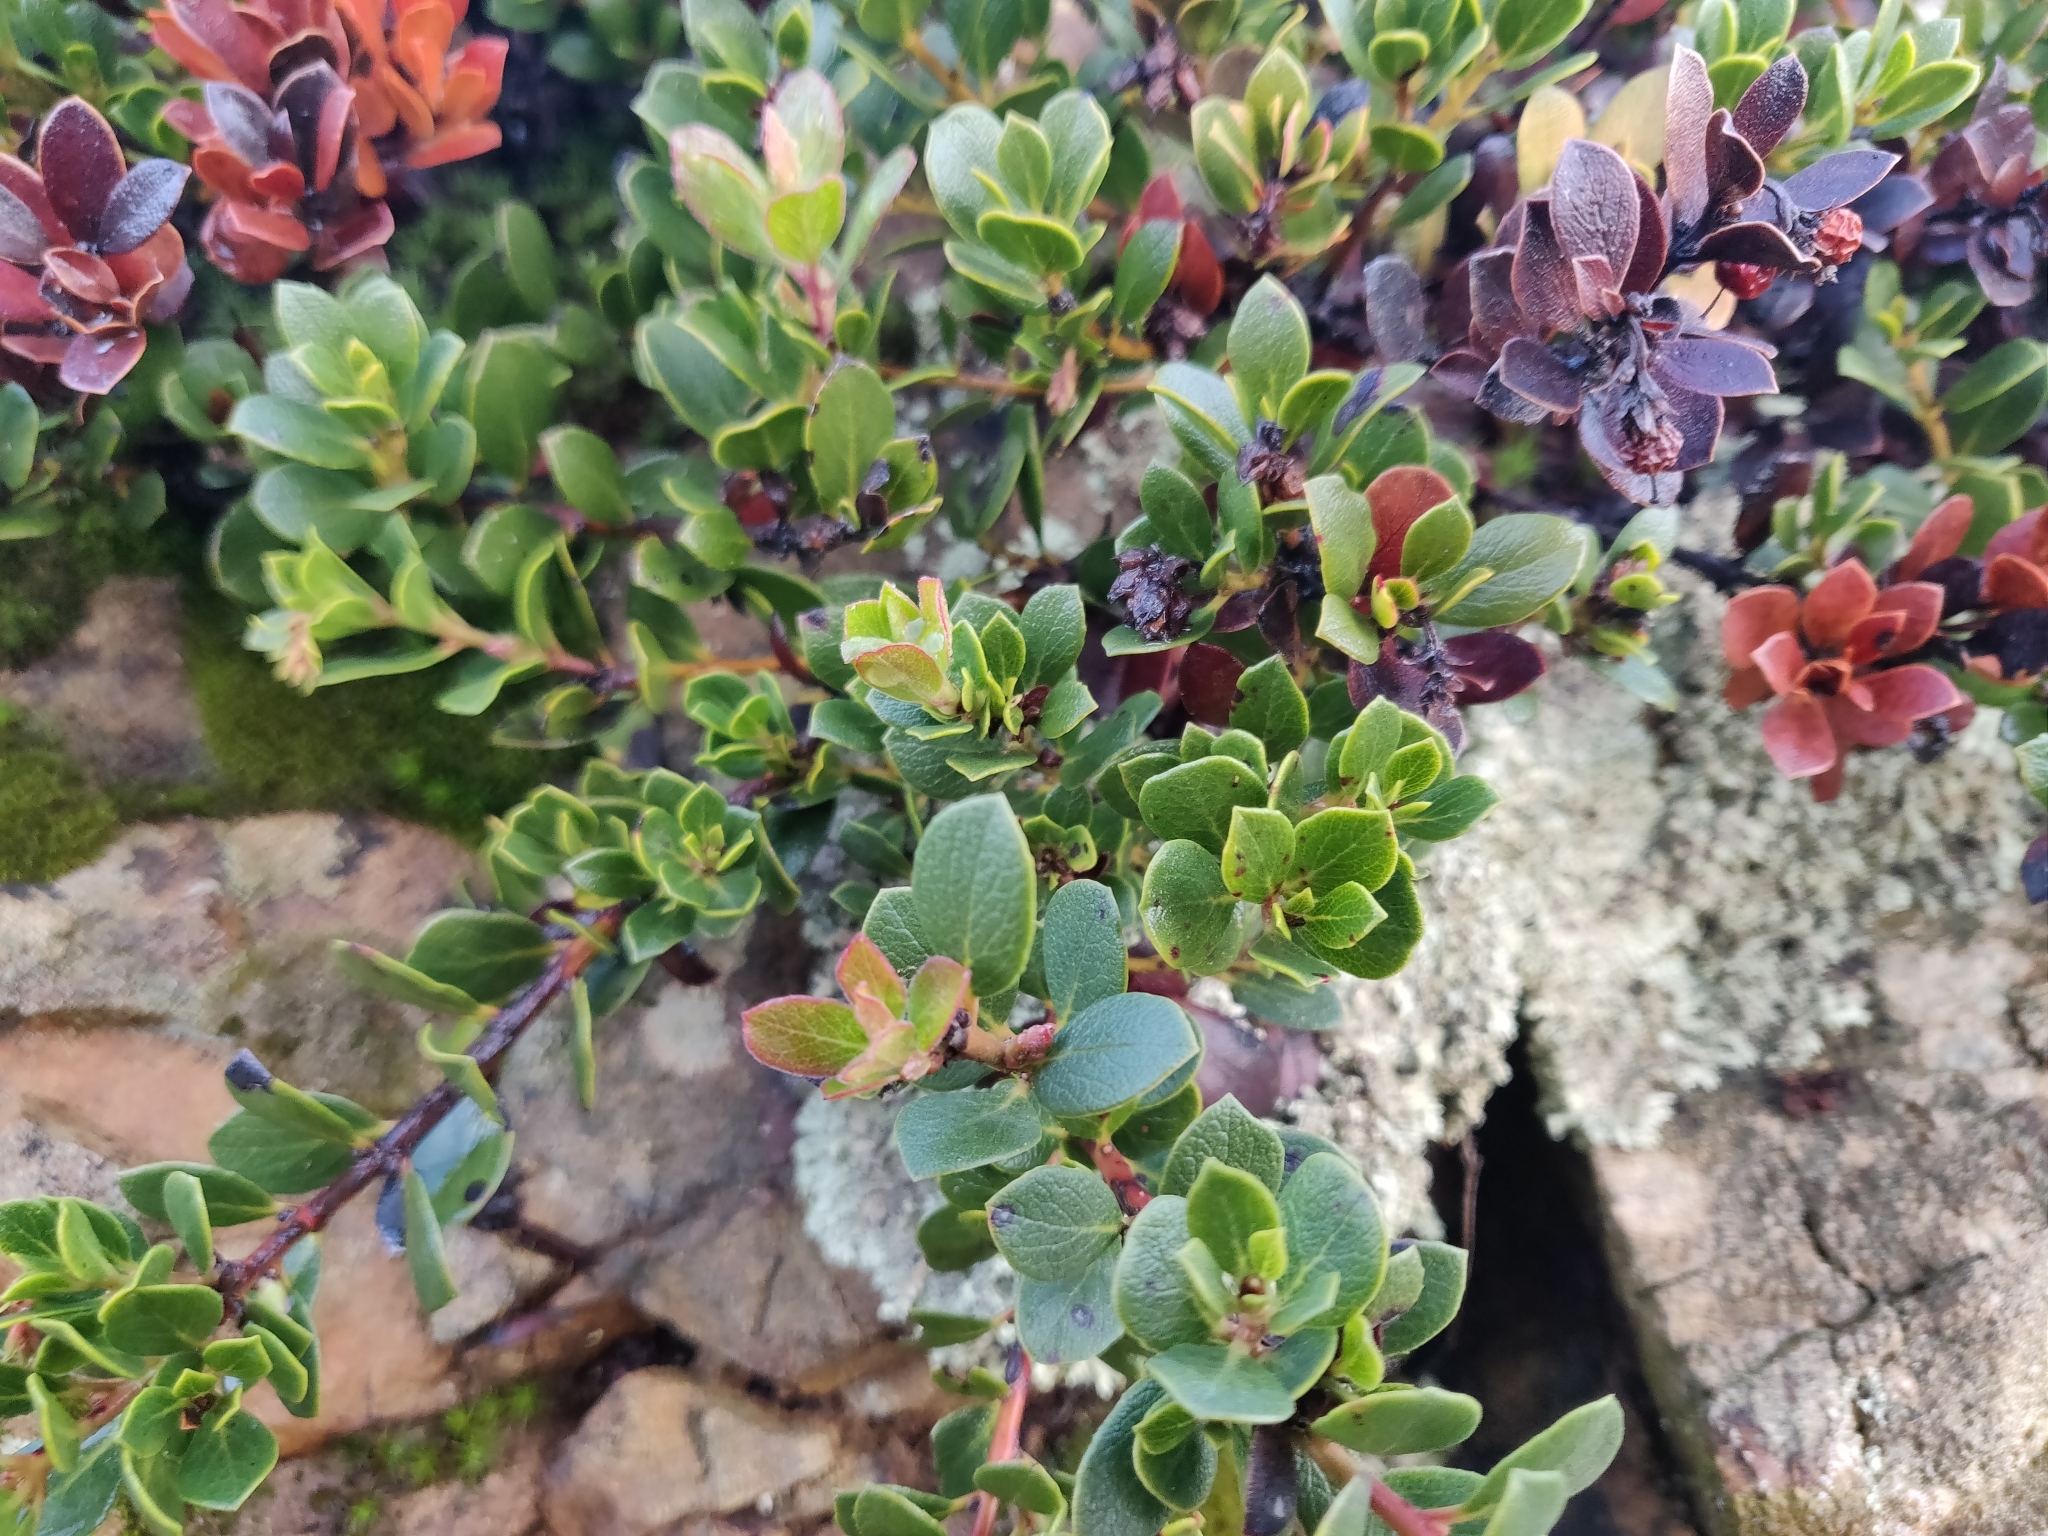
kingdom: Plantae
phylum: Tracheophyta
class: Magnoliopsida
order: Ericales
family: Ericaceae
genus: Arctostaphylos
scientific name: Arctostaphylos pacifica
